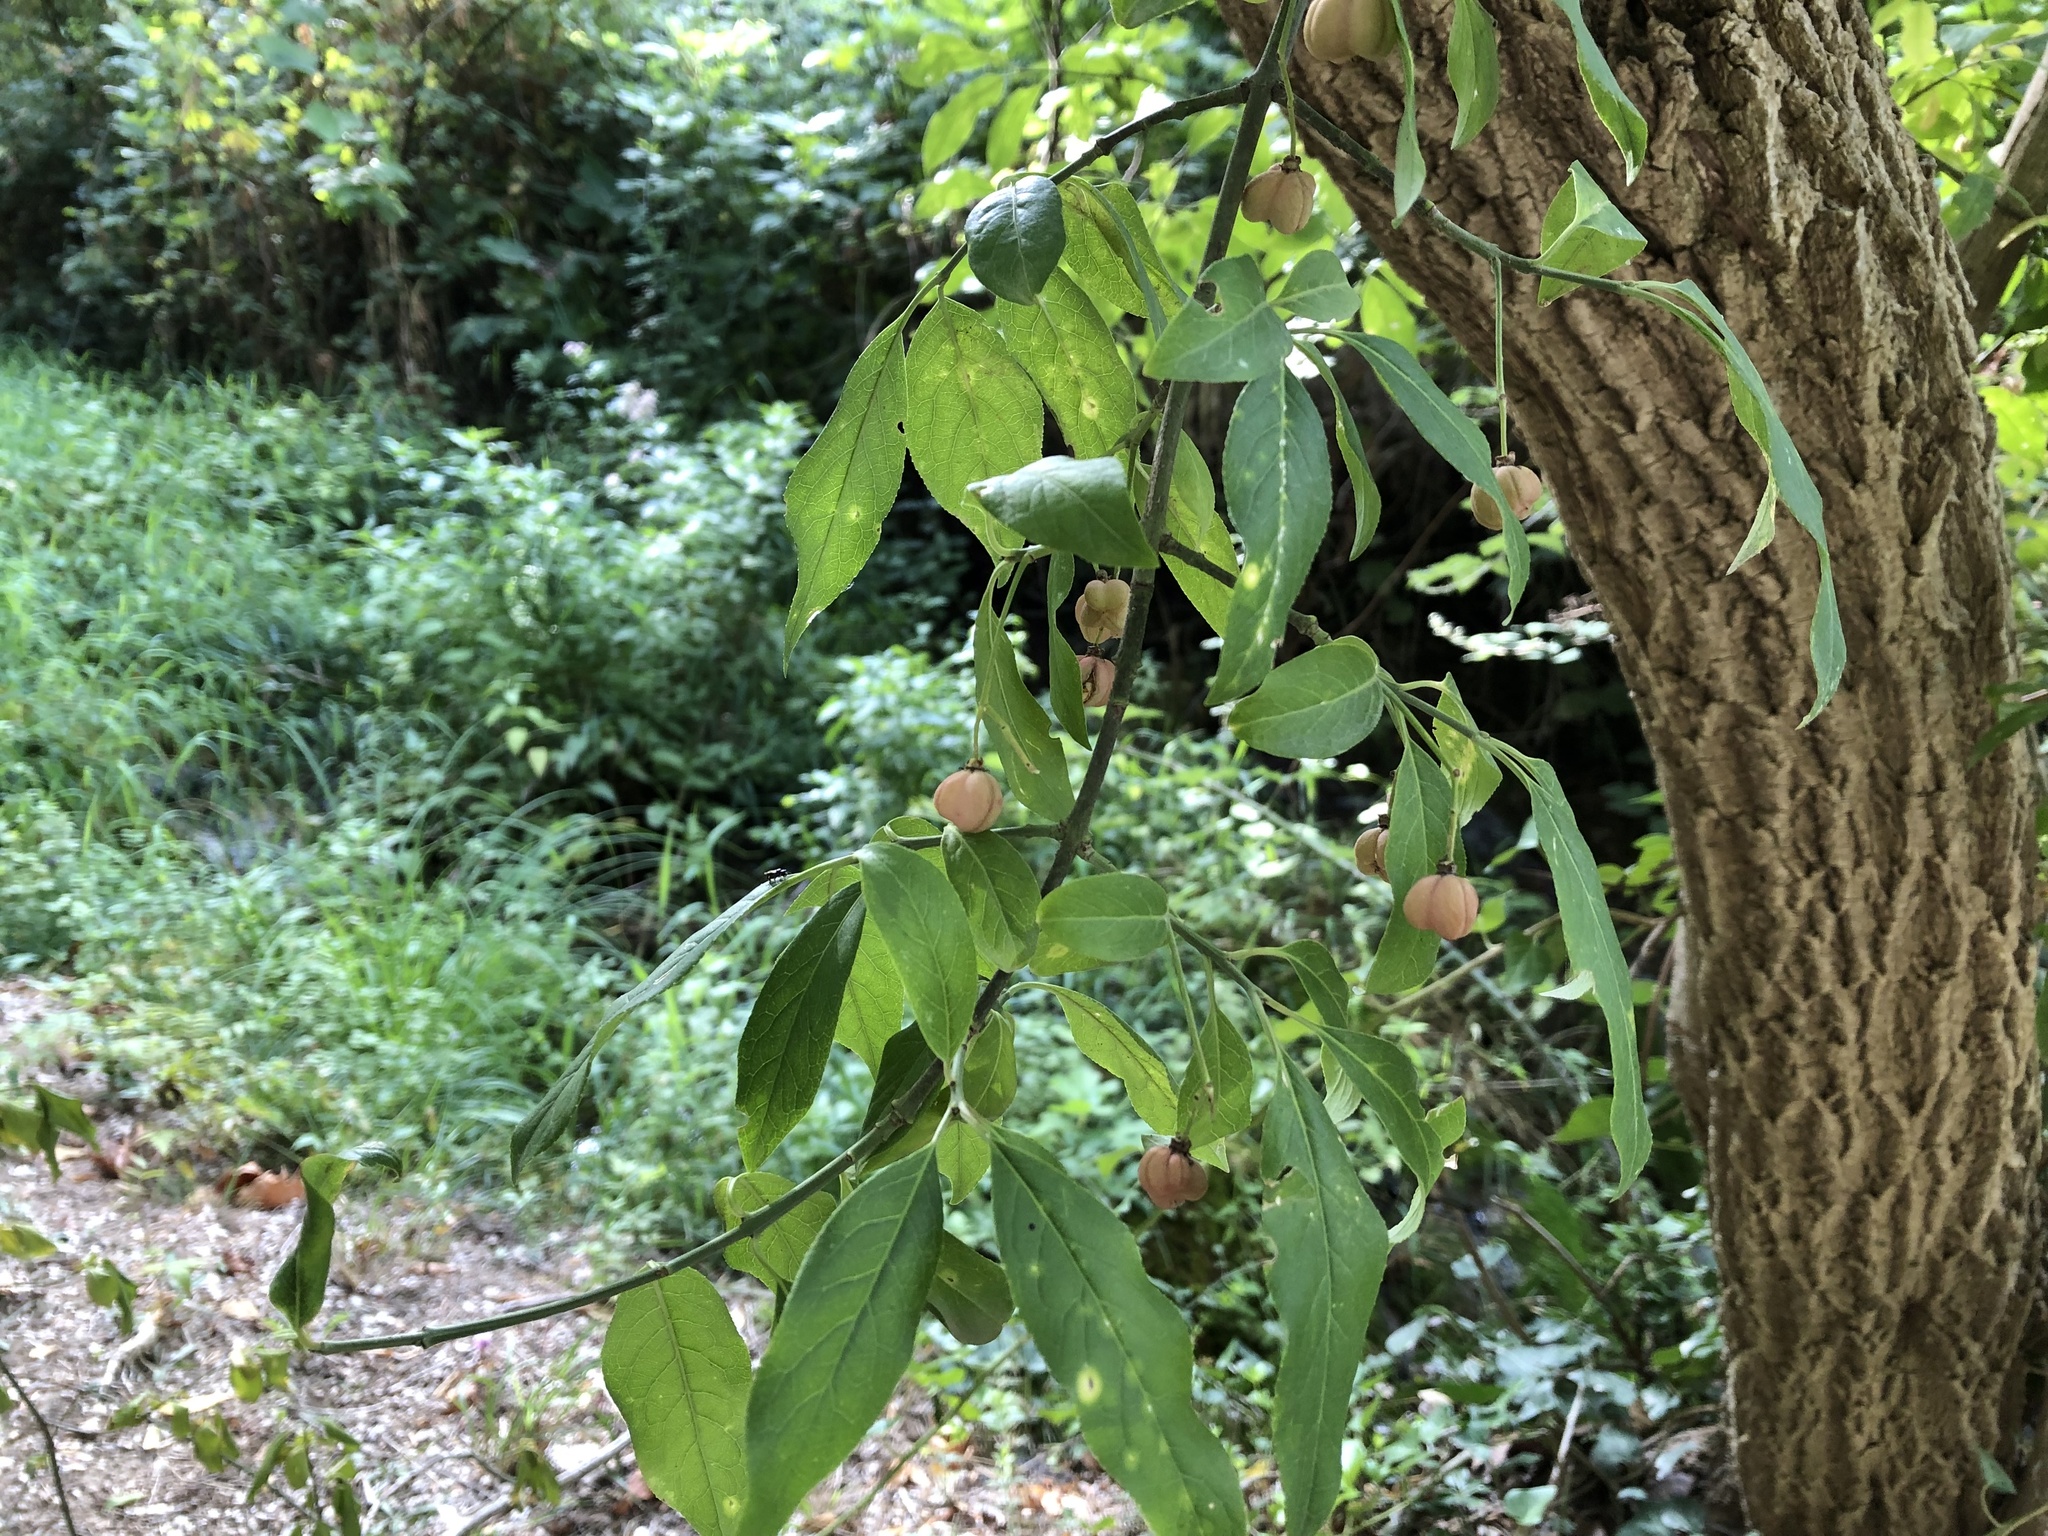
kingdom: Plantae
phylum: Tracheophyta
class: Magnoliopsida
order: Celastrales
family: Celastraceae
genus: Euonymus
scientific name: Euonymus europaeus
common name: Spindle
